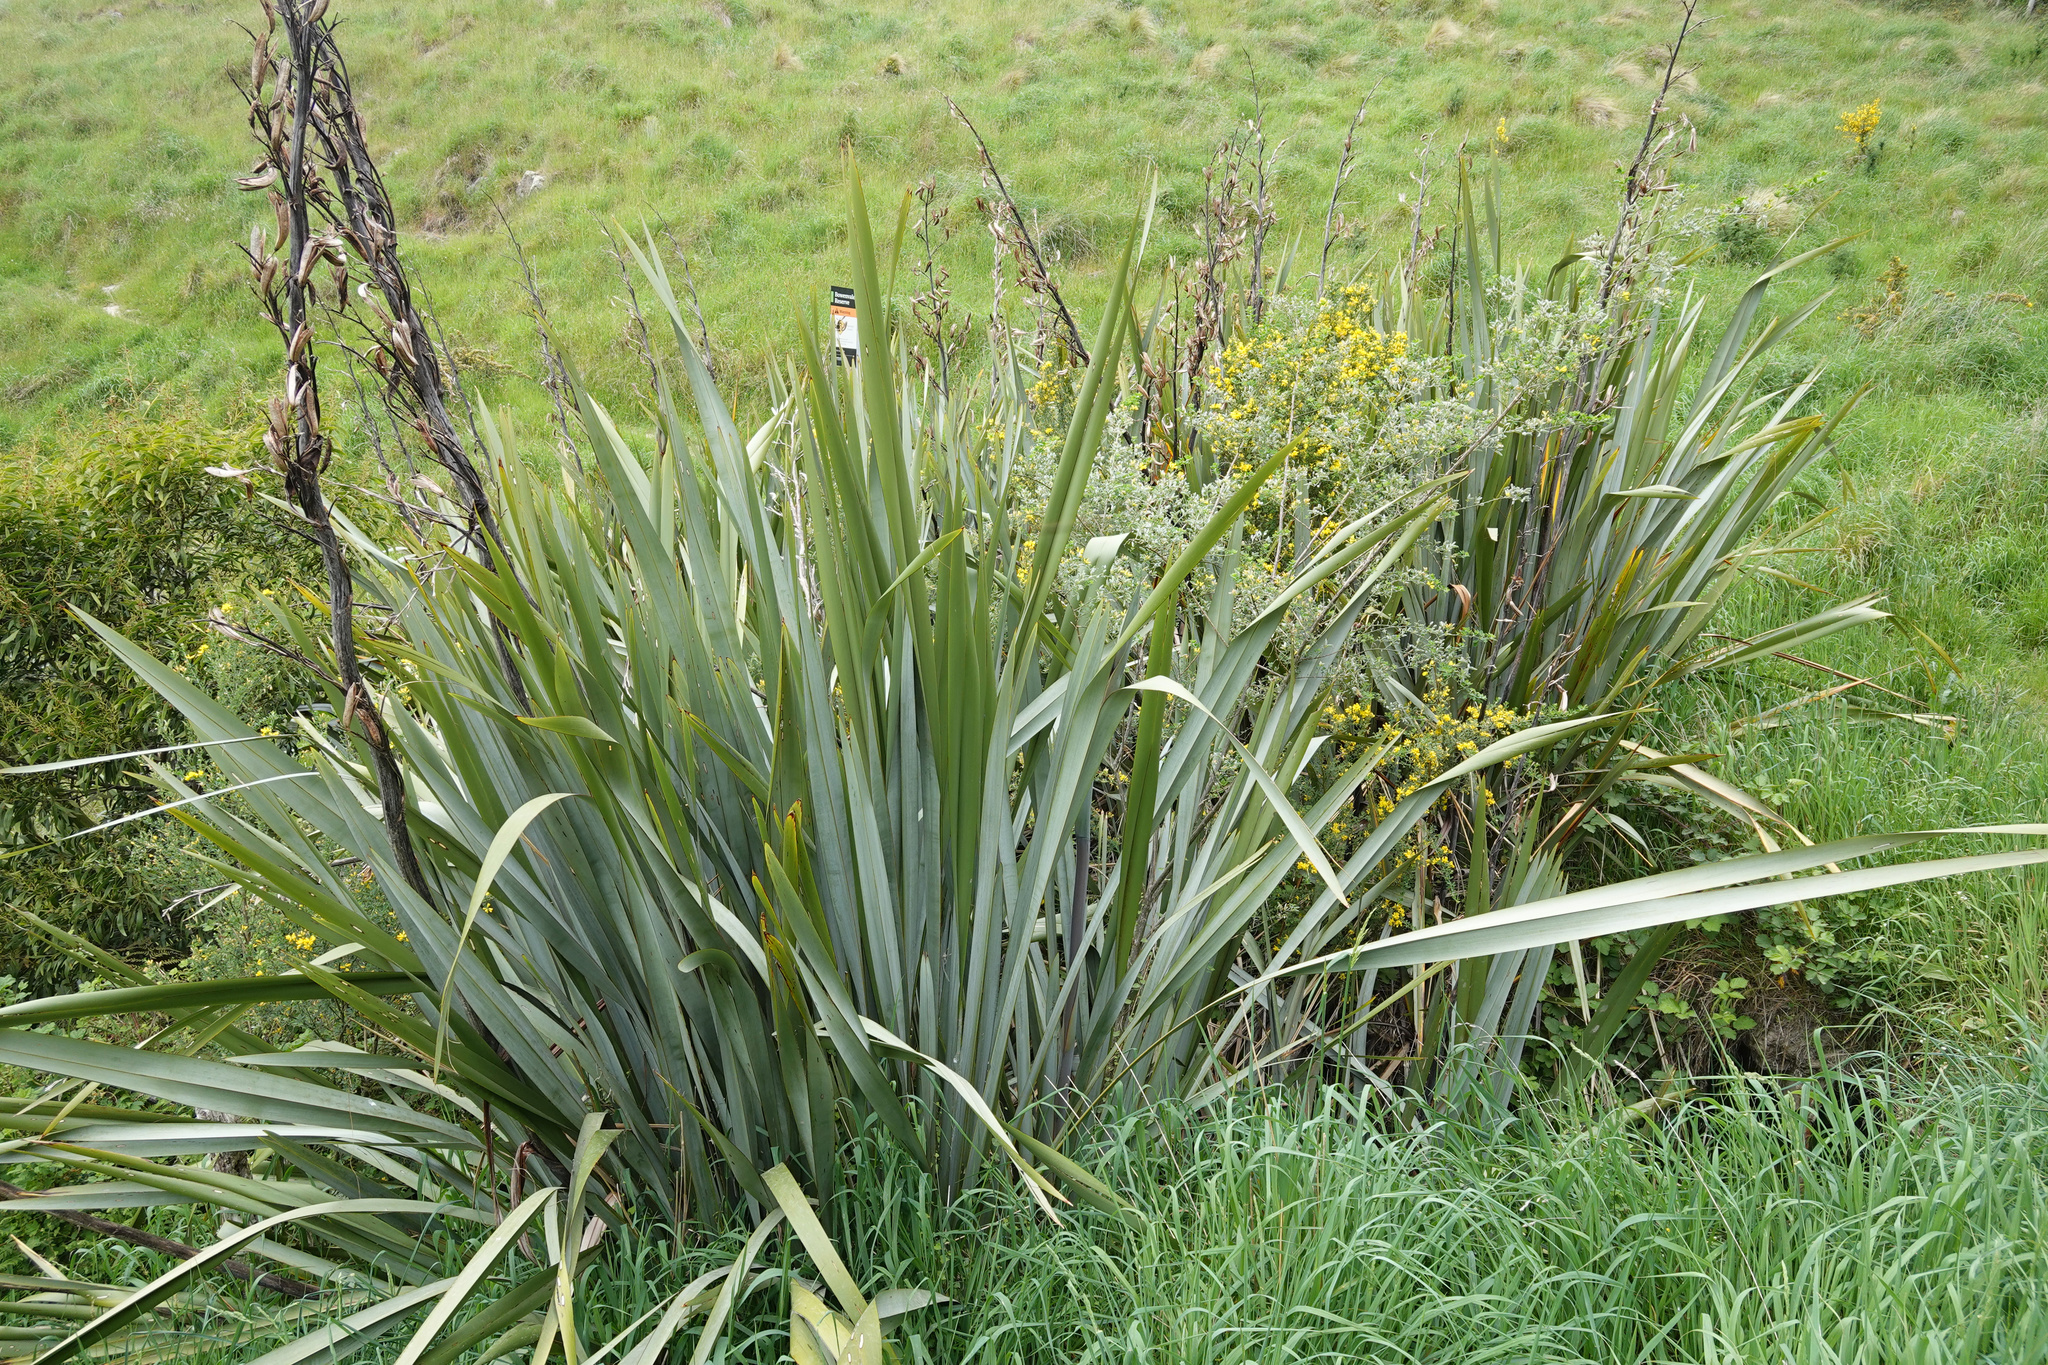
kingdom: Plantae
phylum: Tracheophyta
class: Liliopsida
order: Asparagales
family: Asphodelaceae
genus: Phormium
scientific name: Phormium tenax
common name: New zealand flax
